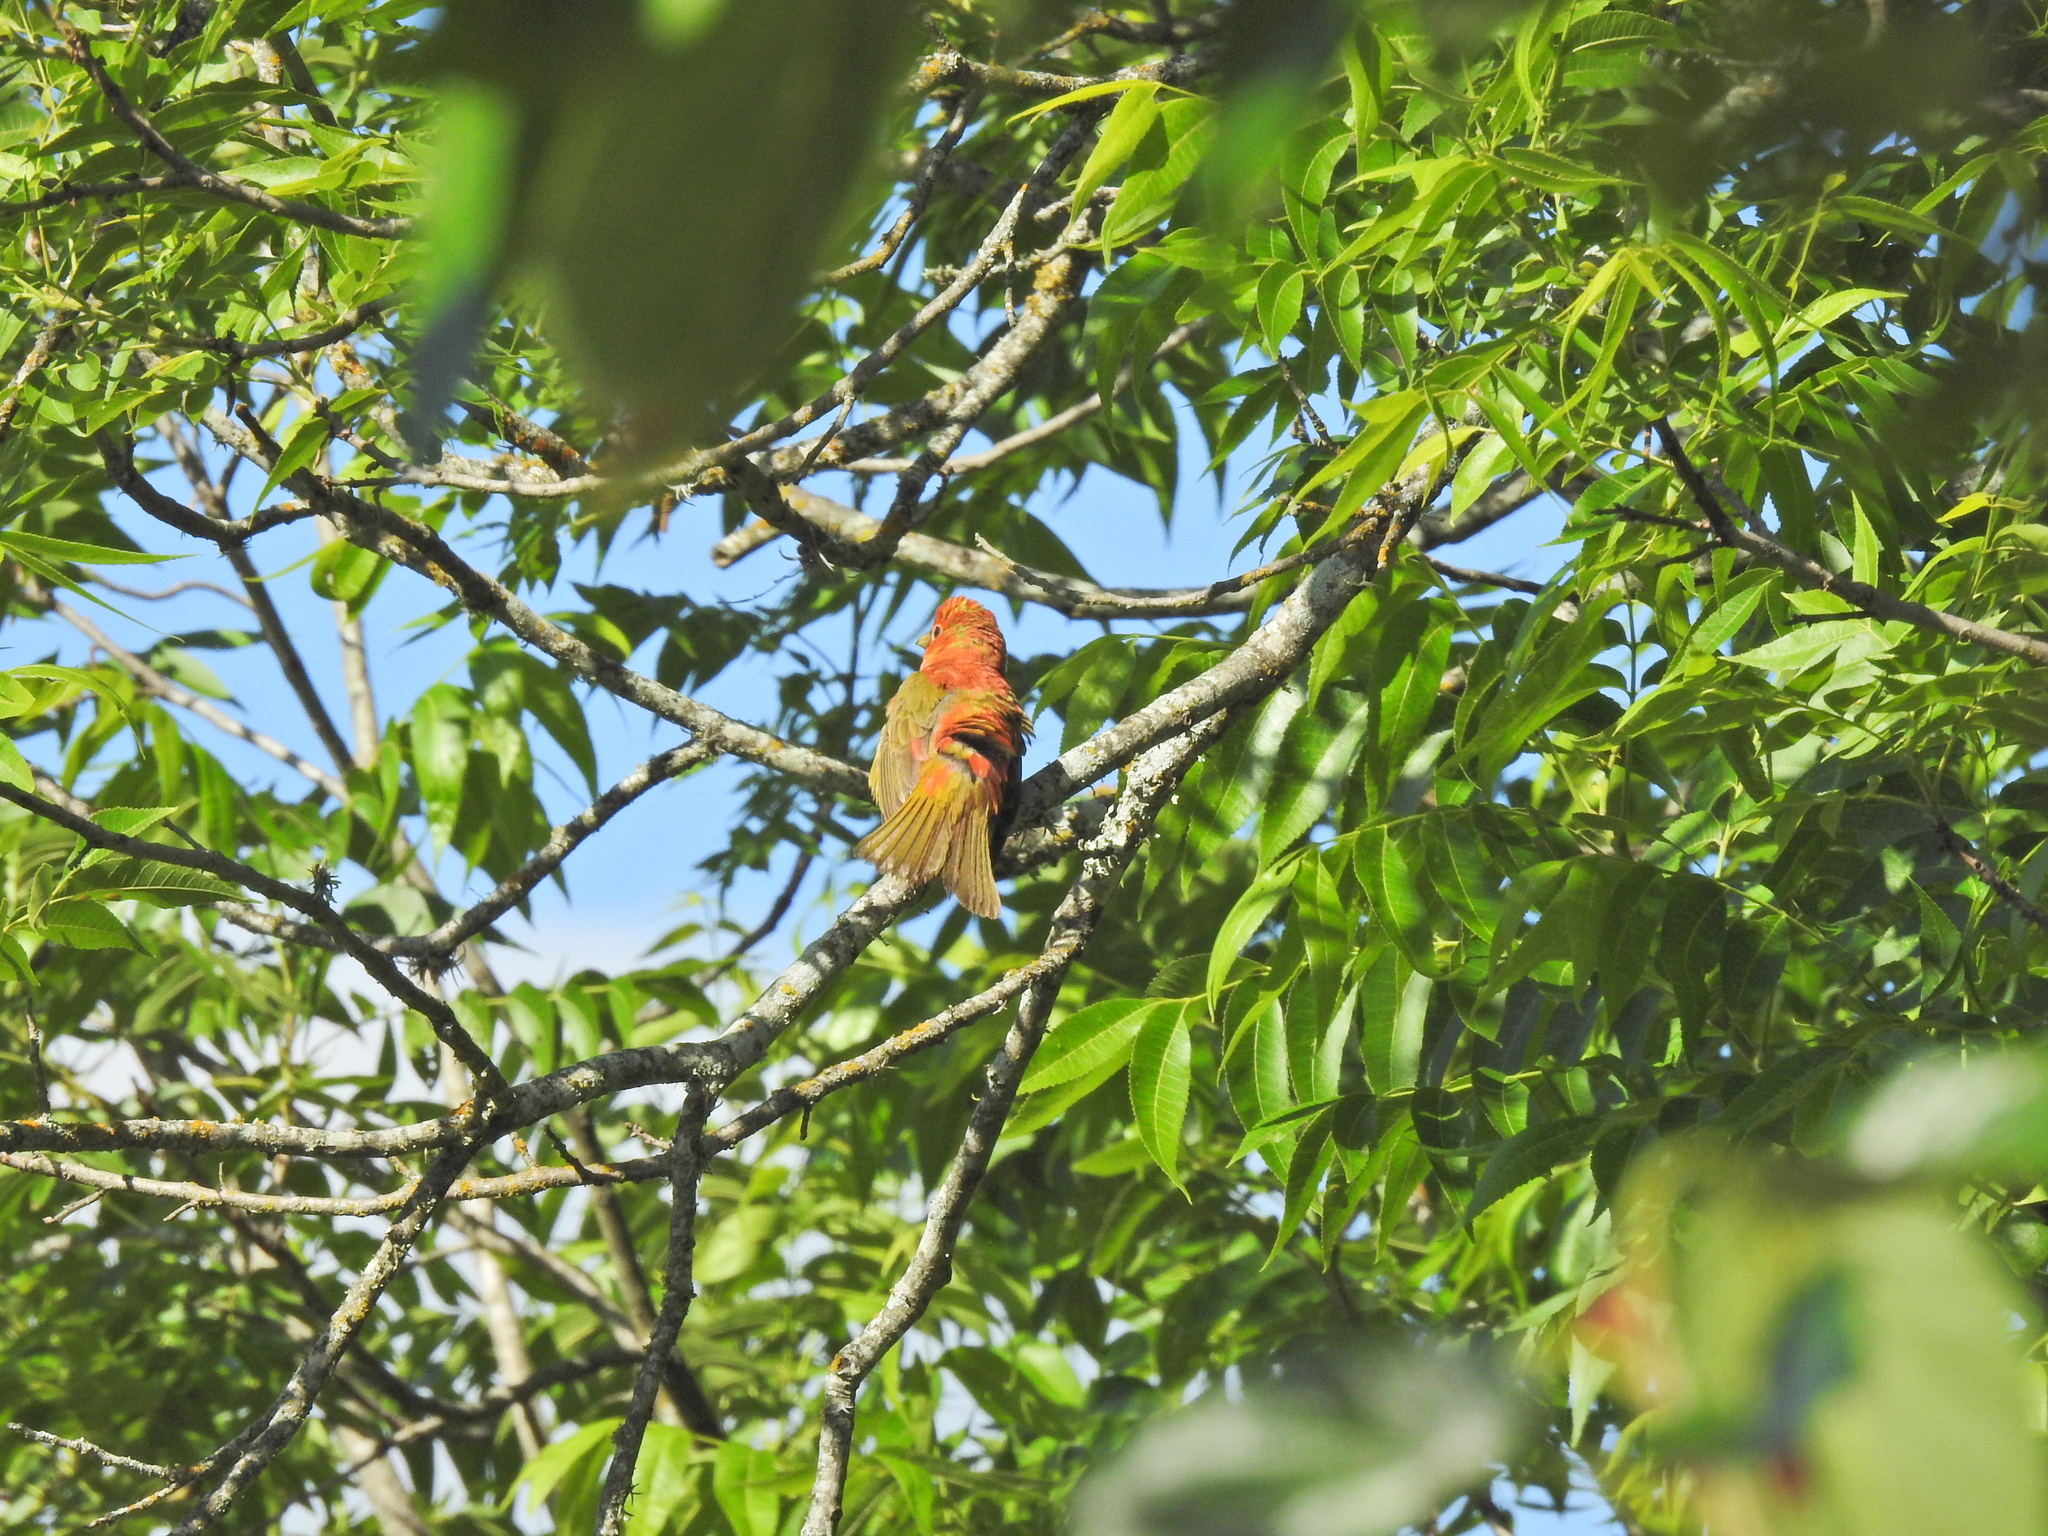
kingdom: Animalia
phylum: Chordata
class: Aves
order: Passeriformes
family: Cardinalidae
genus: Piranga
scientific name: Piranga rubra
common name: Summer tanager
